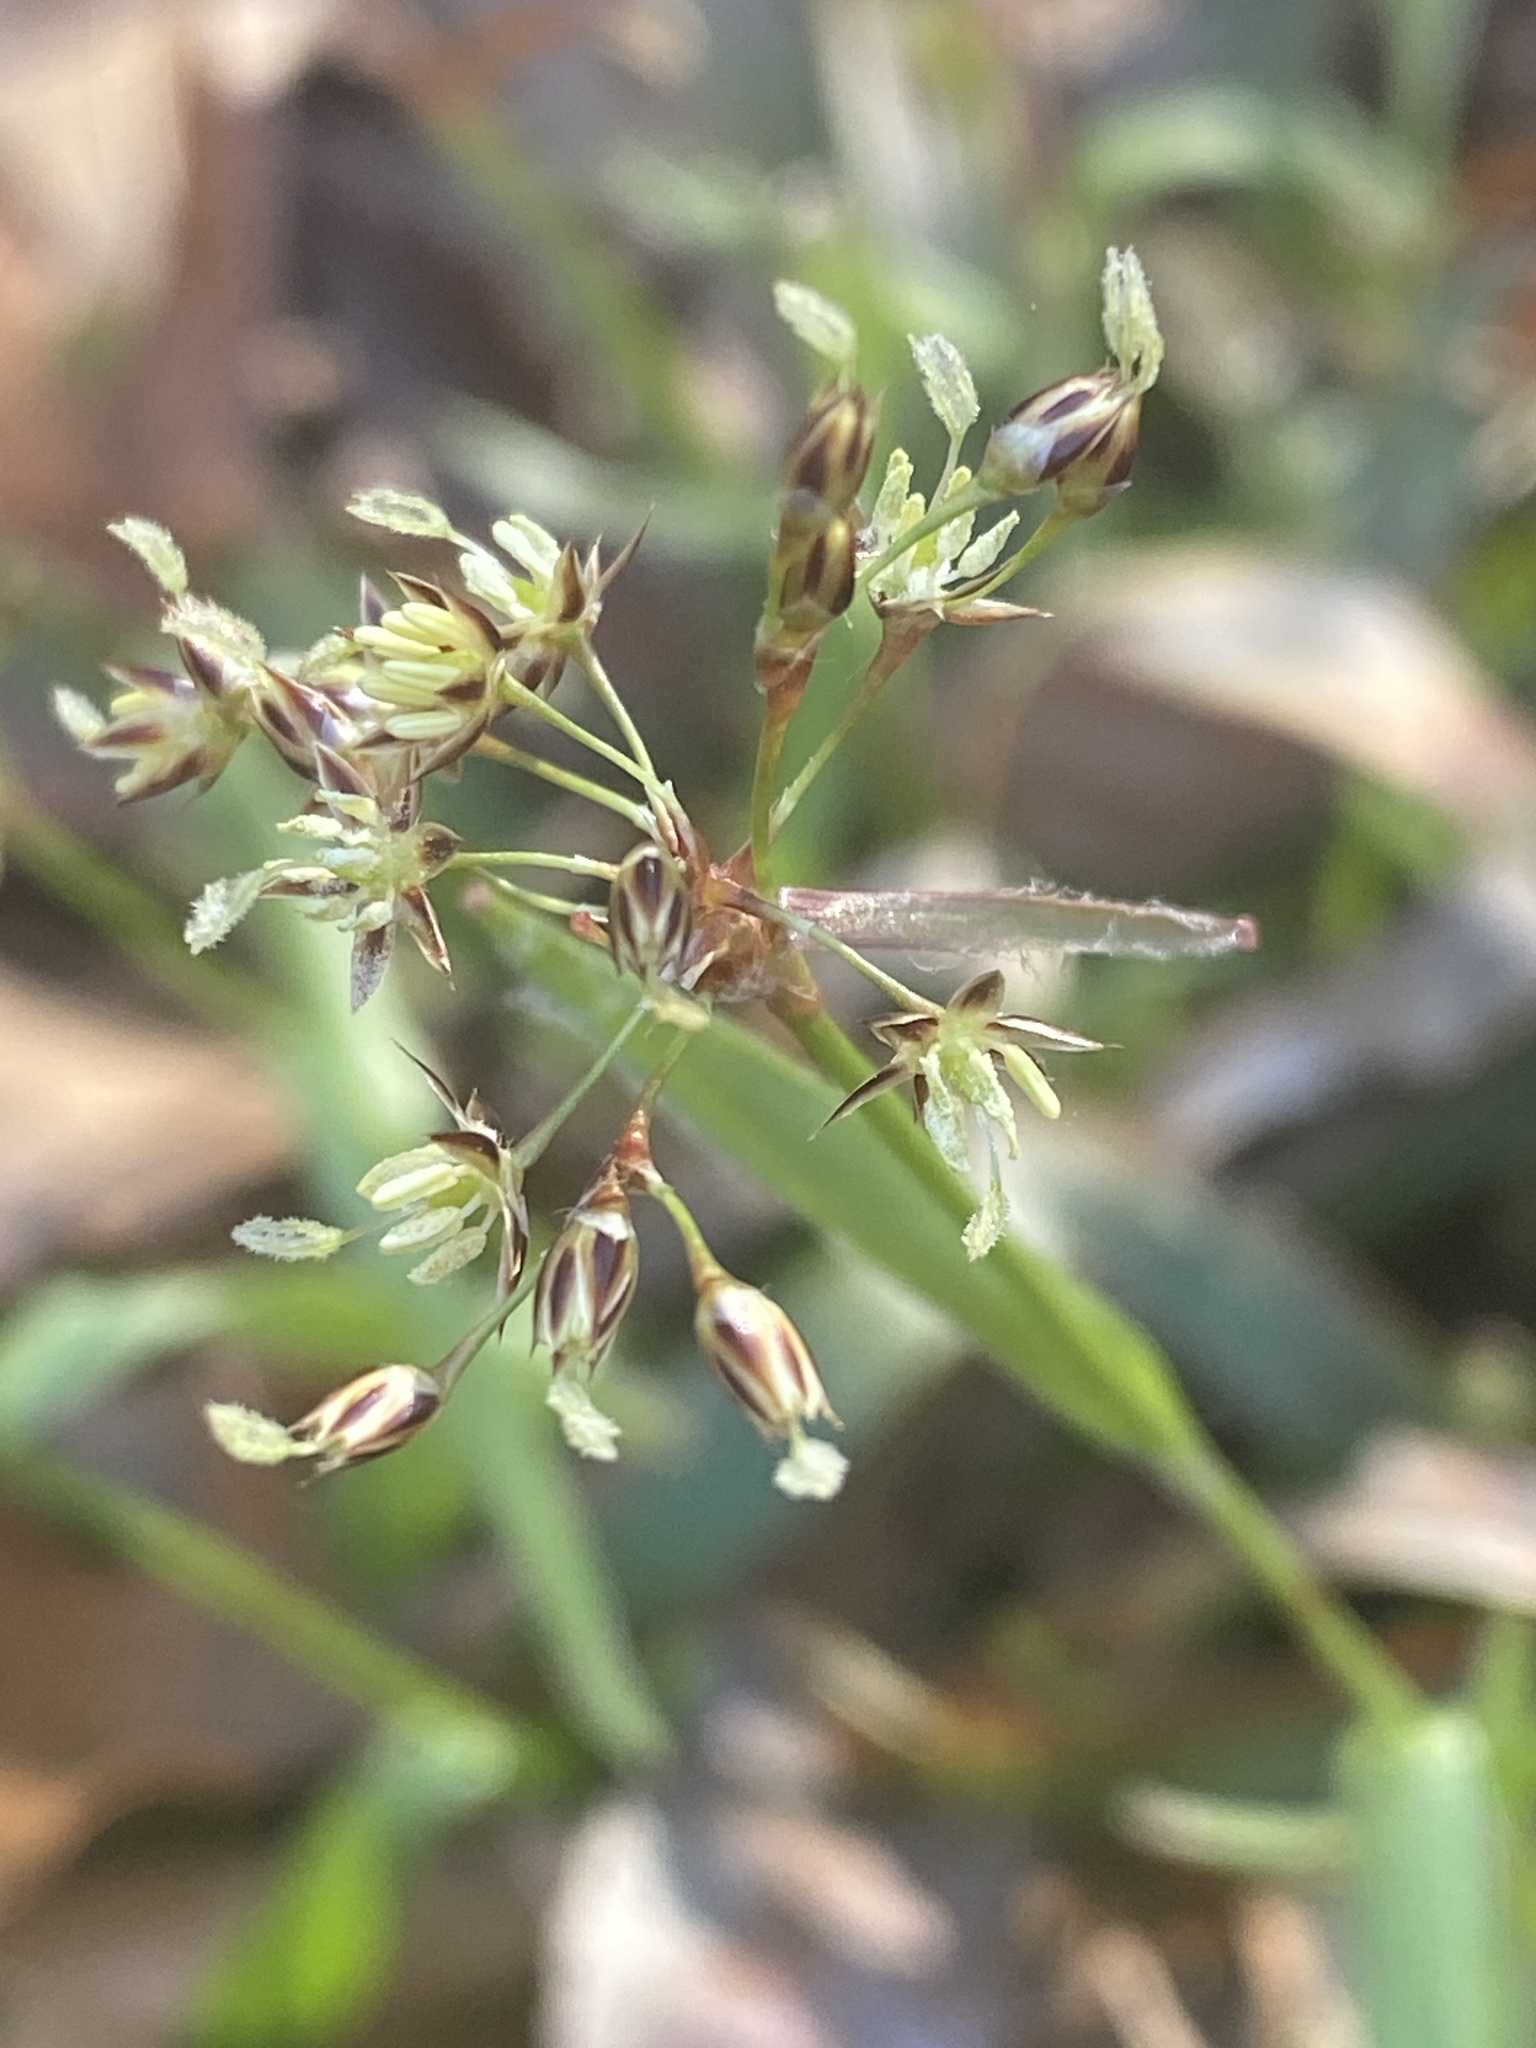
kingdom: Plantae
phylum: Tracheophyta
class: Liliopsida
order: Poales
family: Juncaceae
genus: Luzula
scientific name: Luzula acuminata
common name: Hairy woodrush
